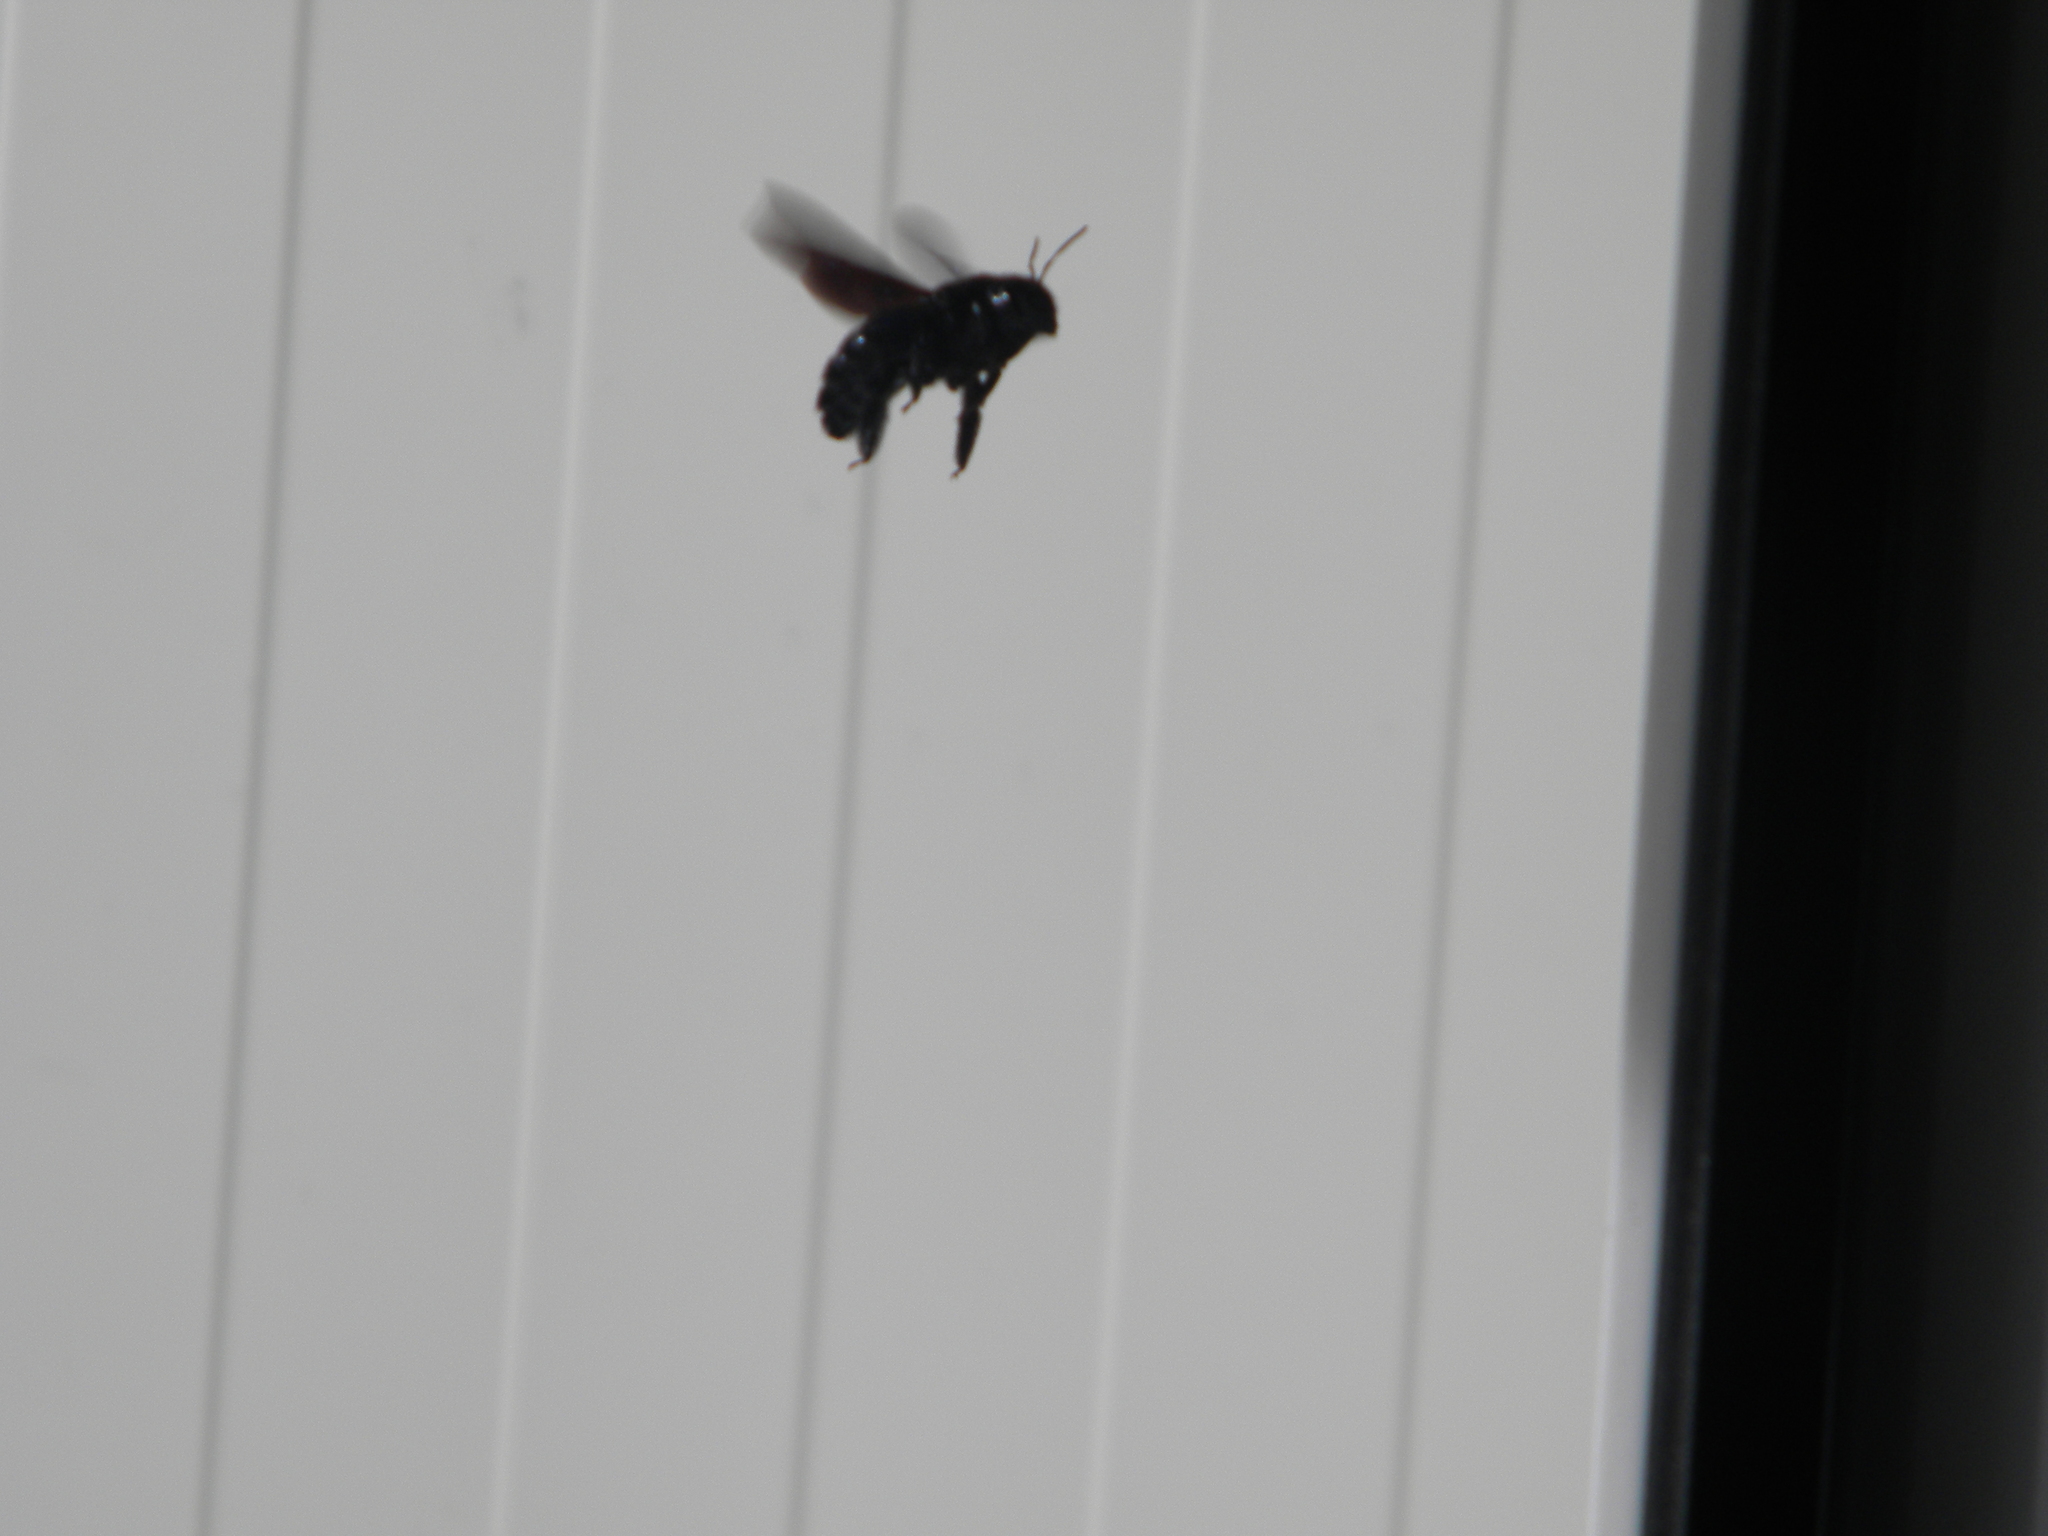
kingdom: Animalia
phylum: Arthropoda
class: Insecta
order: Hymenoptera
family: Apidae
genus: Xylocopa
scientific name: Xylocopa violacea
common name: Violet carpenter bee
